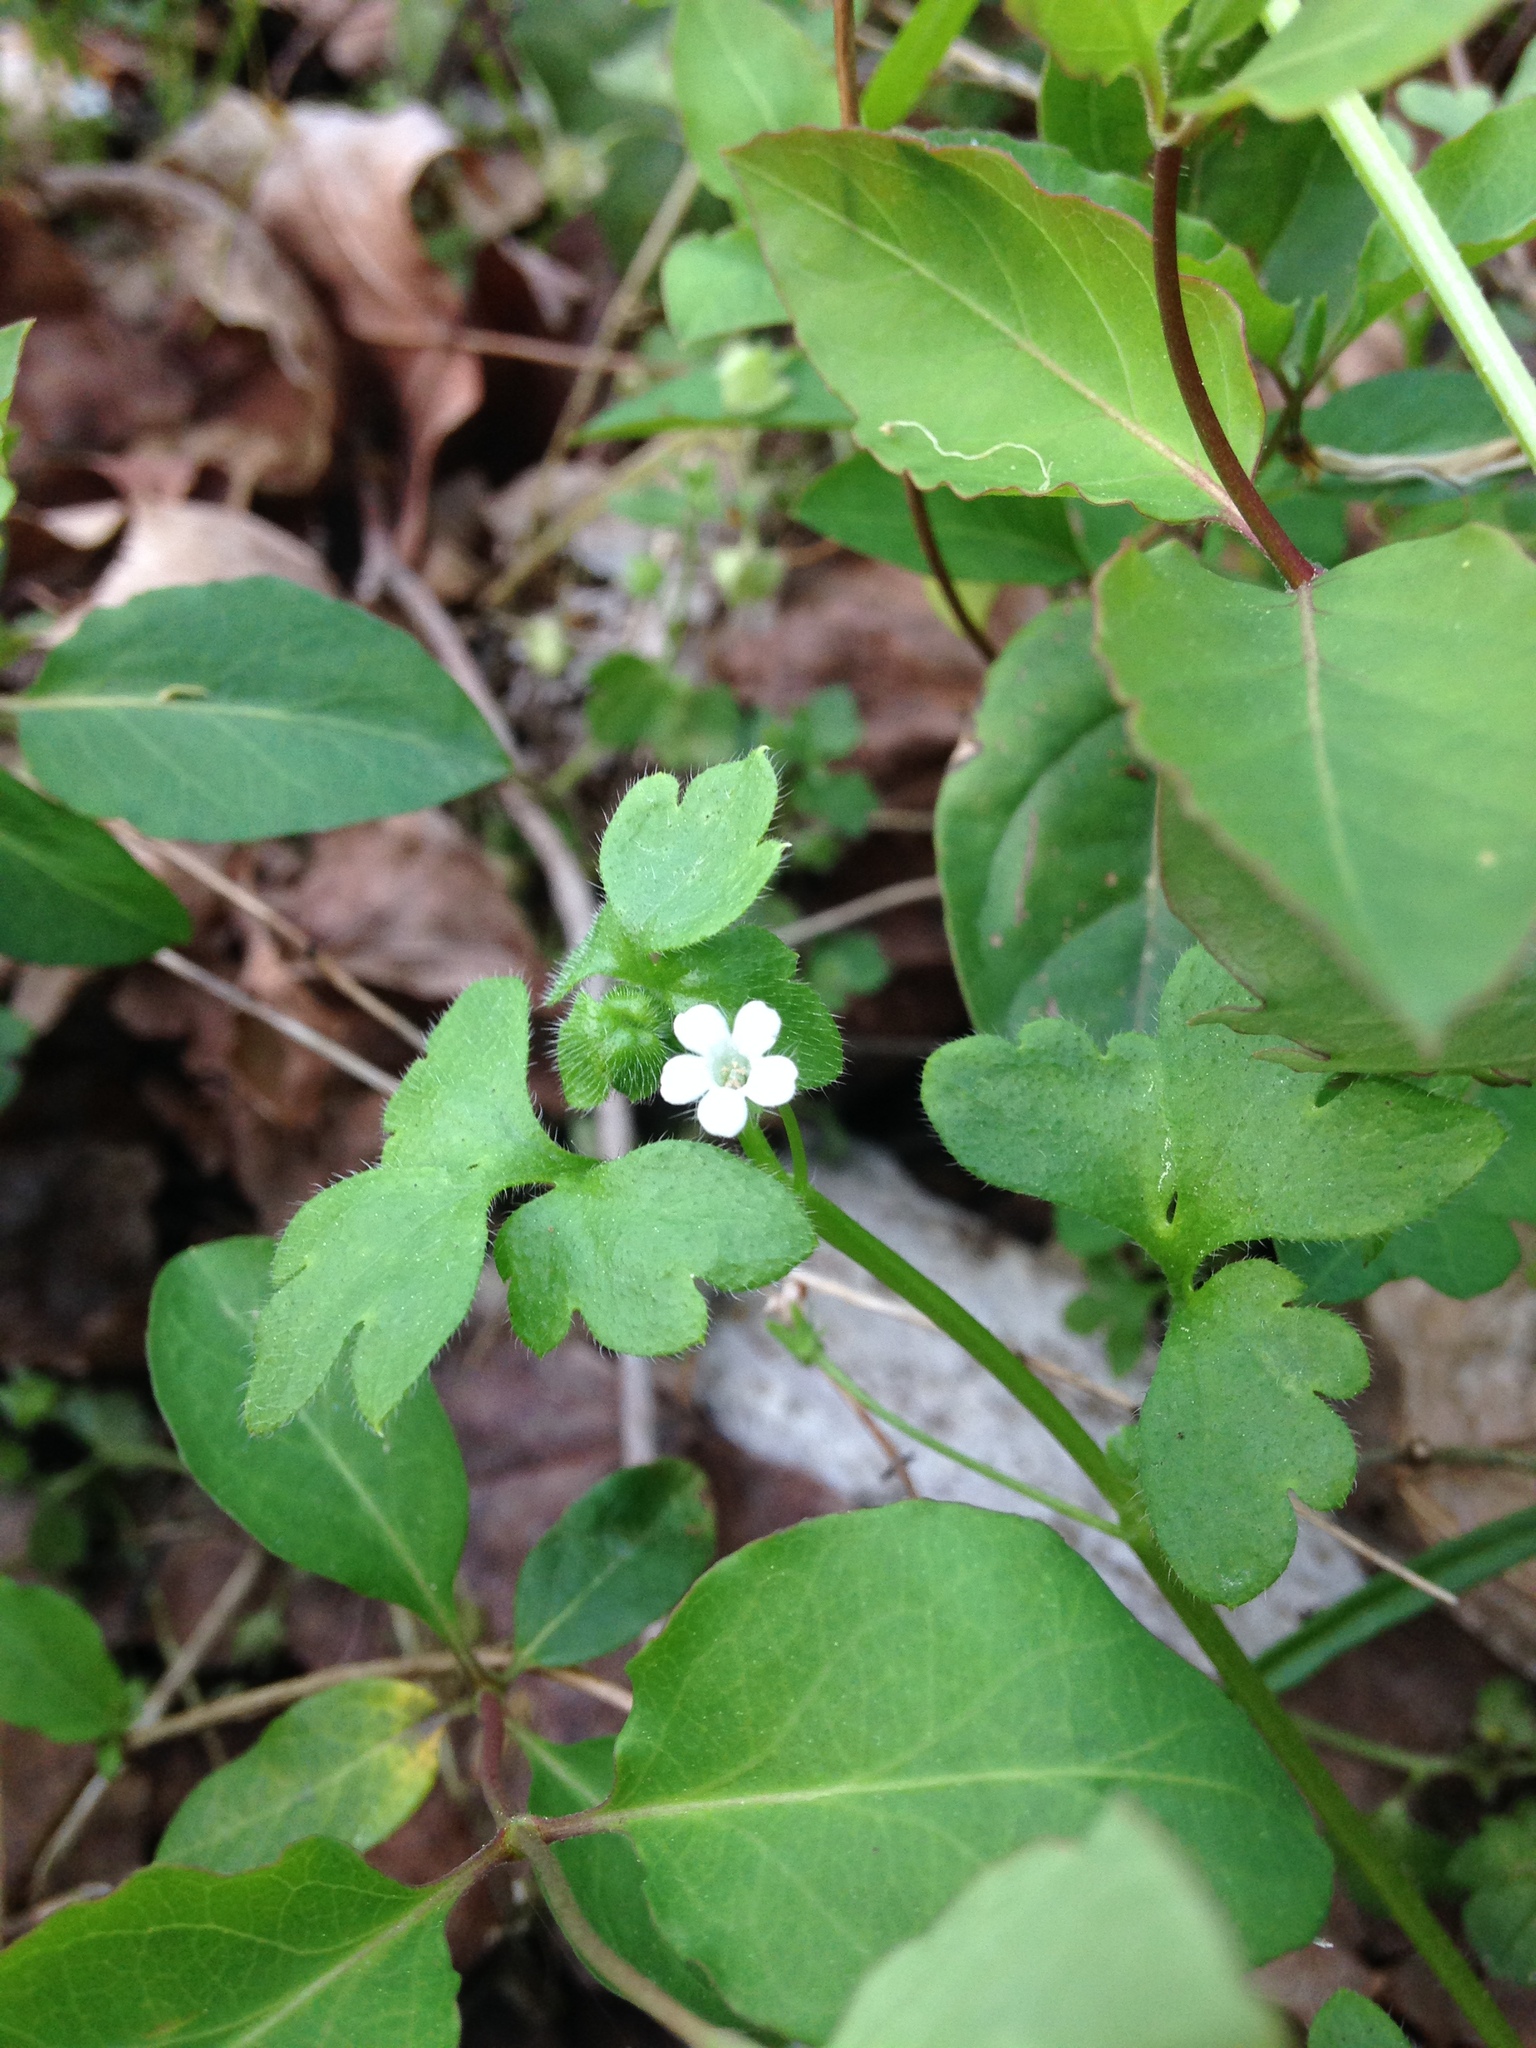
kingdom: Plantae
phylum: Tracheophyta
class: Magnoliopsida
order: Boraginales
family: Hydrophyllaceae
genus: Nemophila
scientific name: Nemophila aphylla
